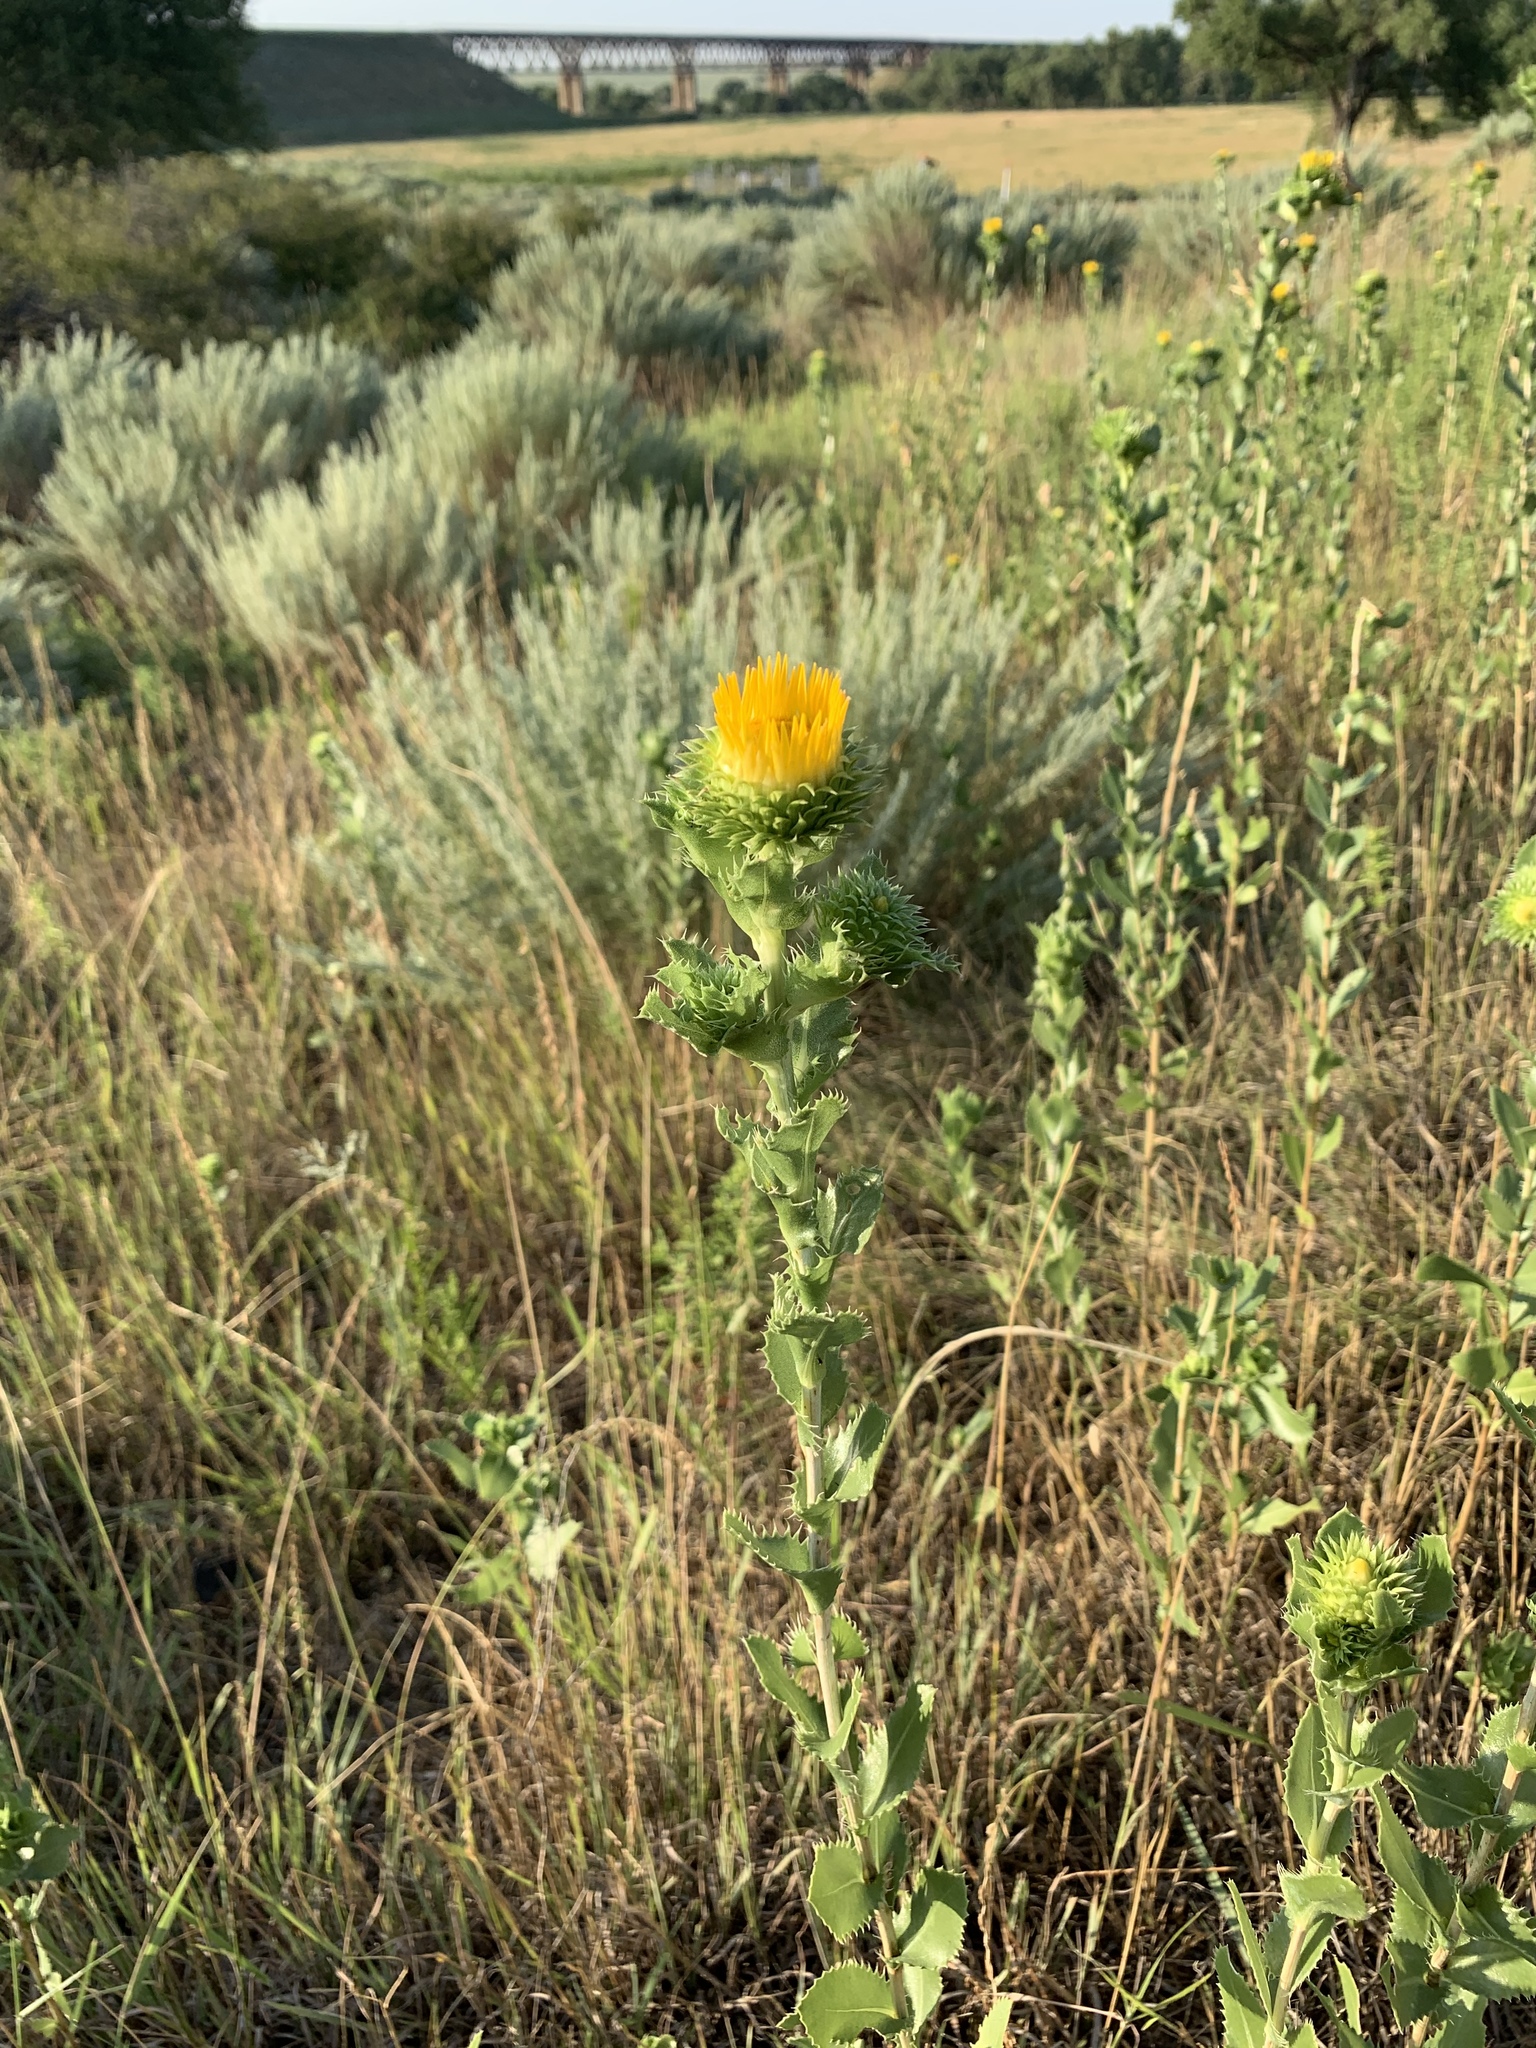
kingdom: Plantae
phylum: Tracheophyta
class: Magnoliopsida
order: Asterales
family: Asteraceae
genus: Grindelia
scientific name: Grindelia ciliata
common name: Goldenweed
